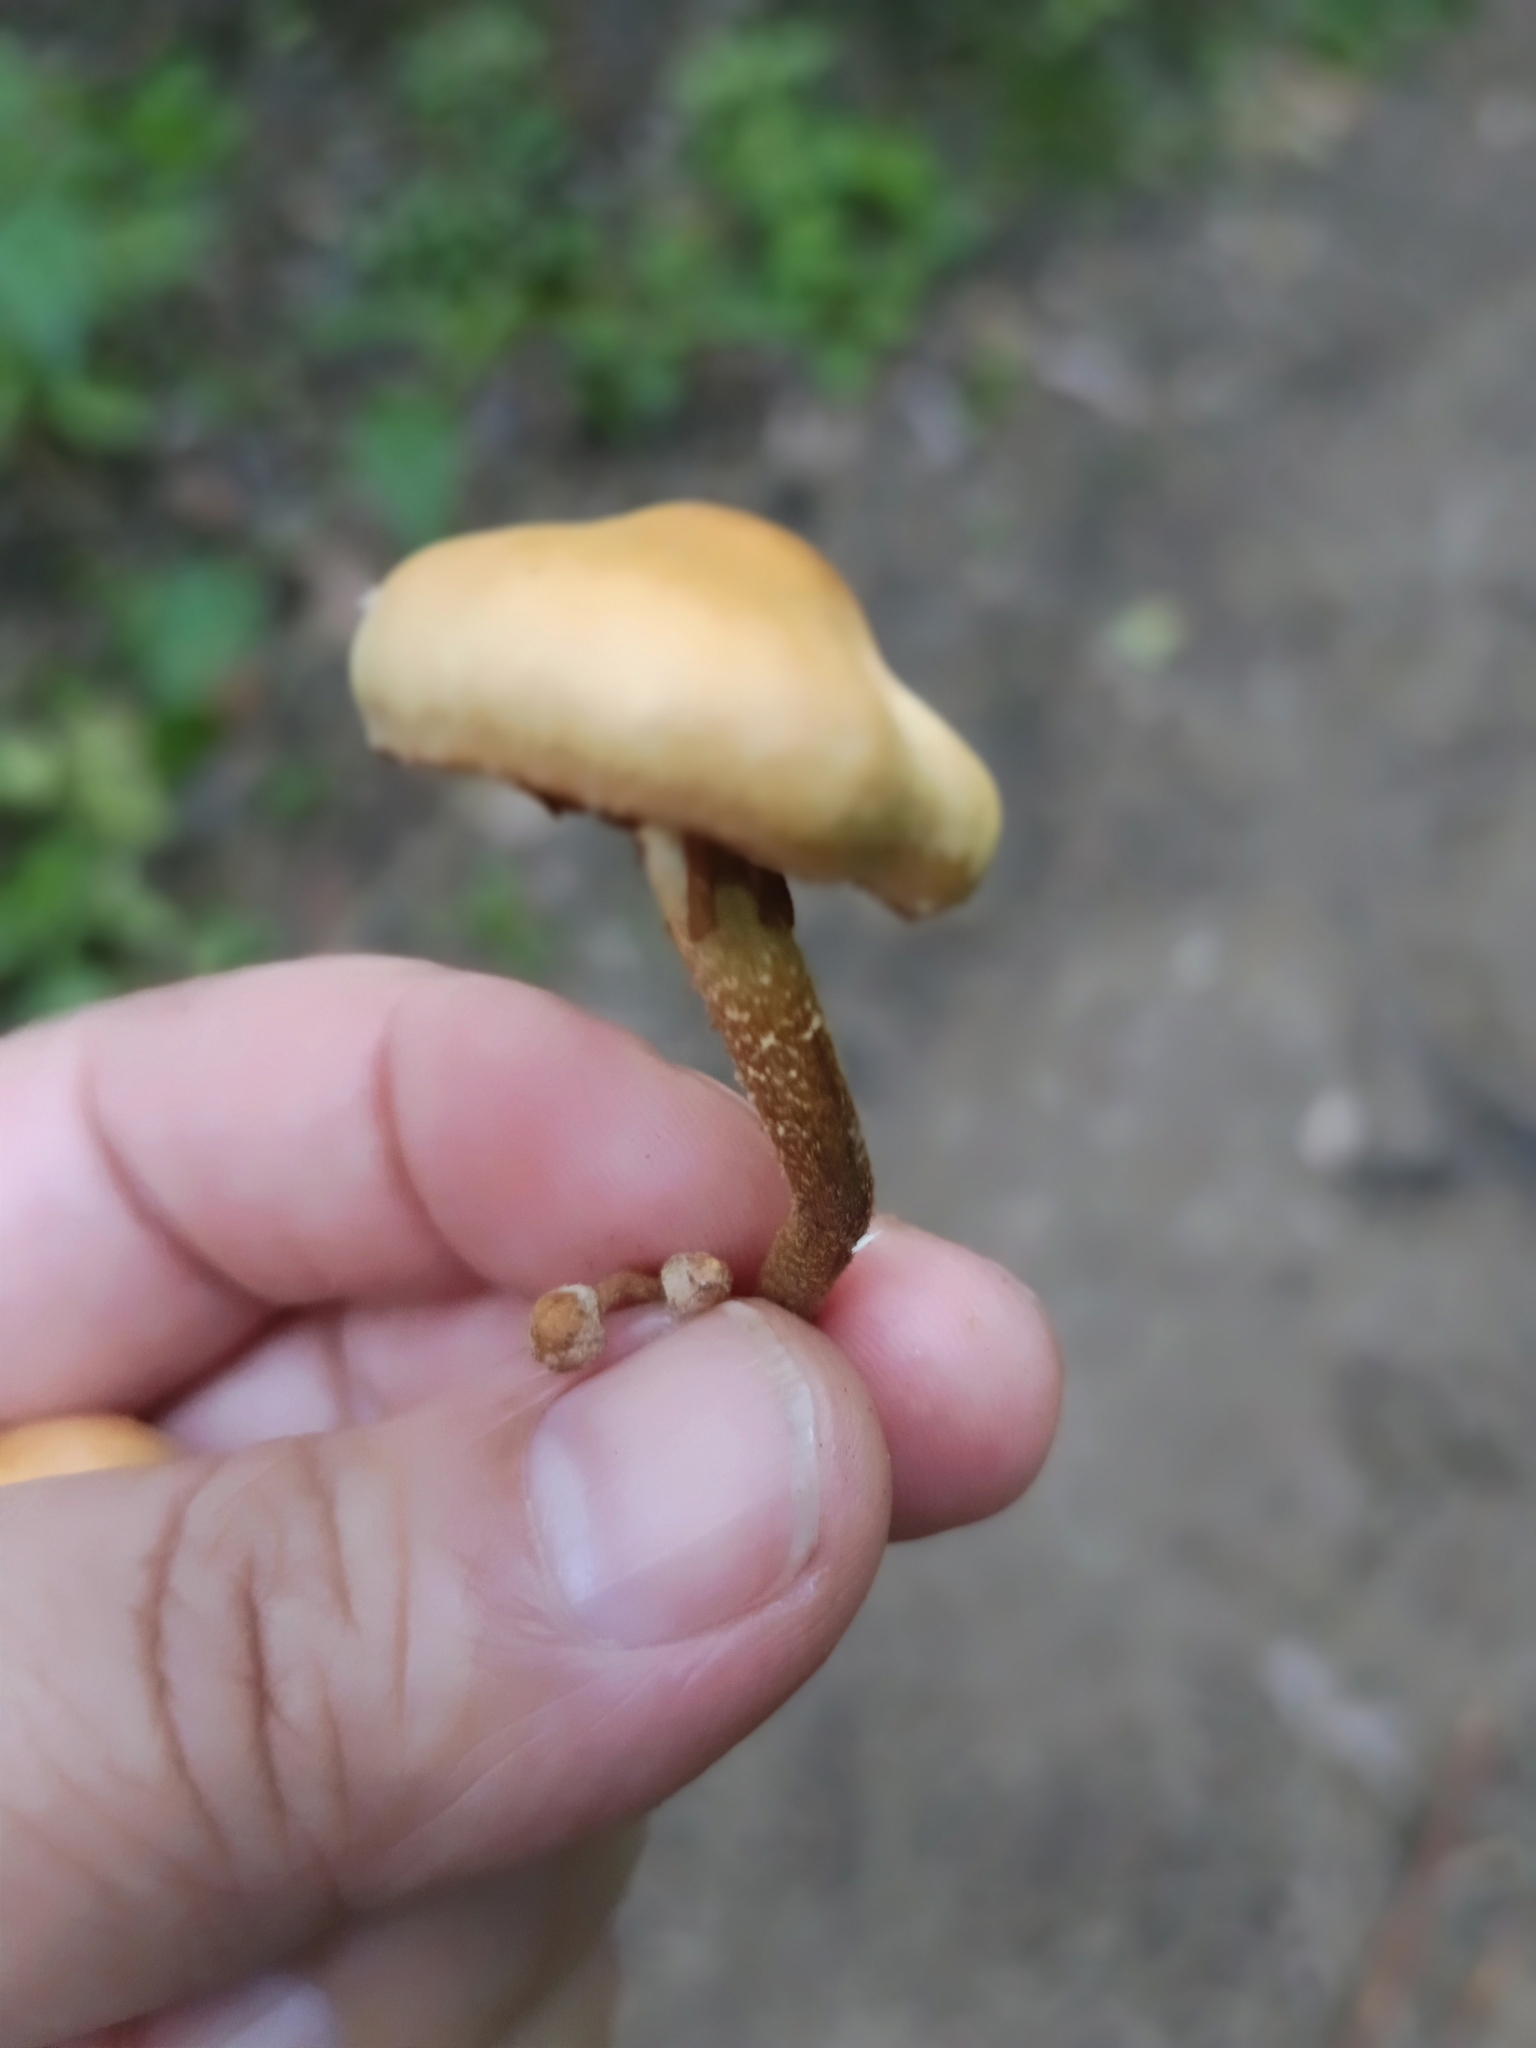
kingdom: Fungi
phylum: Basidiomycota
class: Agaricomycetes
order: Agaricales
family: Strophariaceae
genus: Kuehneromyces
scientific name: Kuehneromyces mutabilis
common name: Sheathed woodtuft
